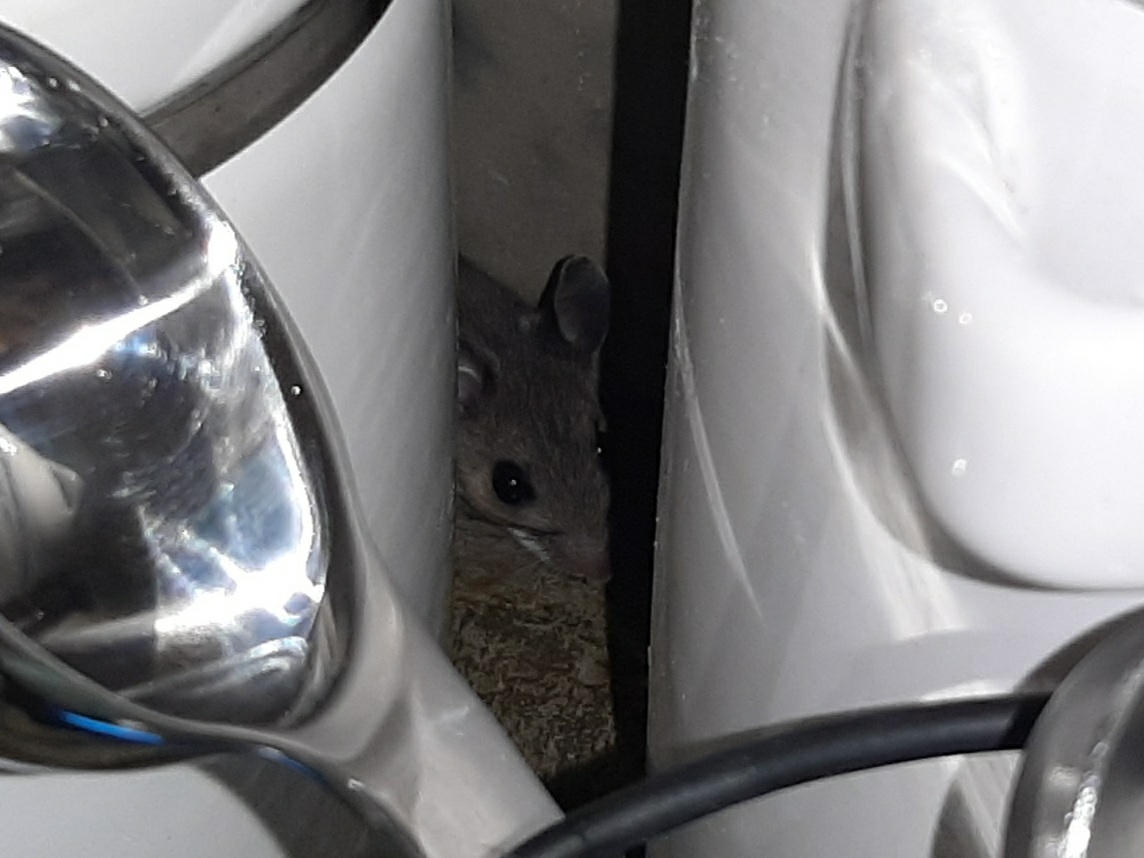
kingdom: Animalia
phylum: Chordata
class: Mammalia
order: Rodentia
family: Cricetidae
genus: Peromyscus
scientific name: Peromyscus maniculatus
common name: Deer mouse
